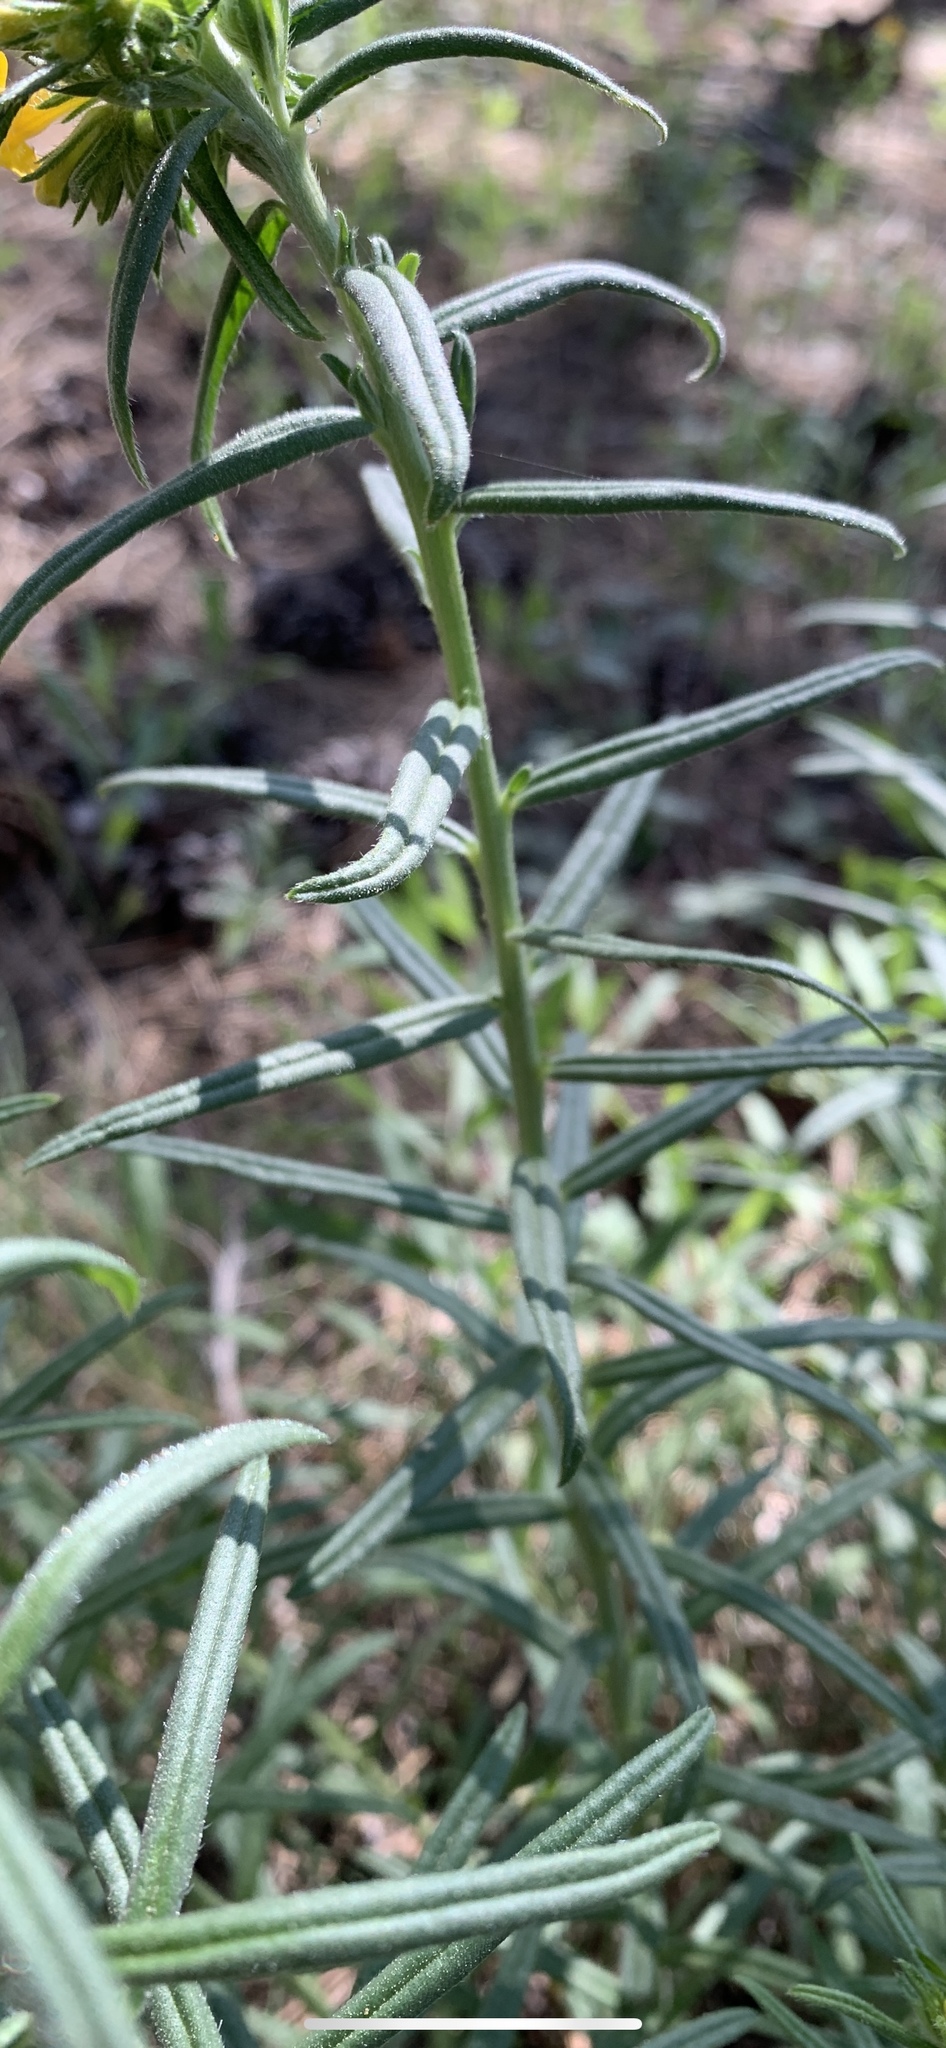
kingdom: Plantae
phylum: Tracheophyta
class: Magnoliopsida
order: Boraginales
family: Boraginaceae
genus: Lithospermum
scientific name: Lithospermum multiflorum
